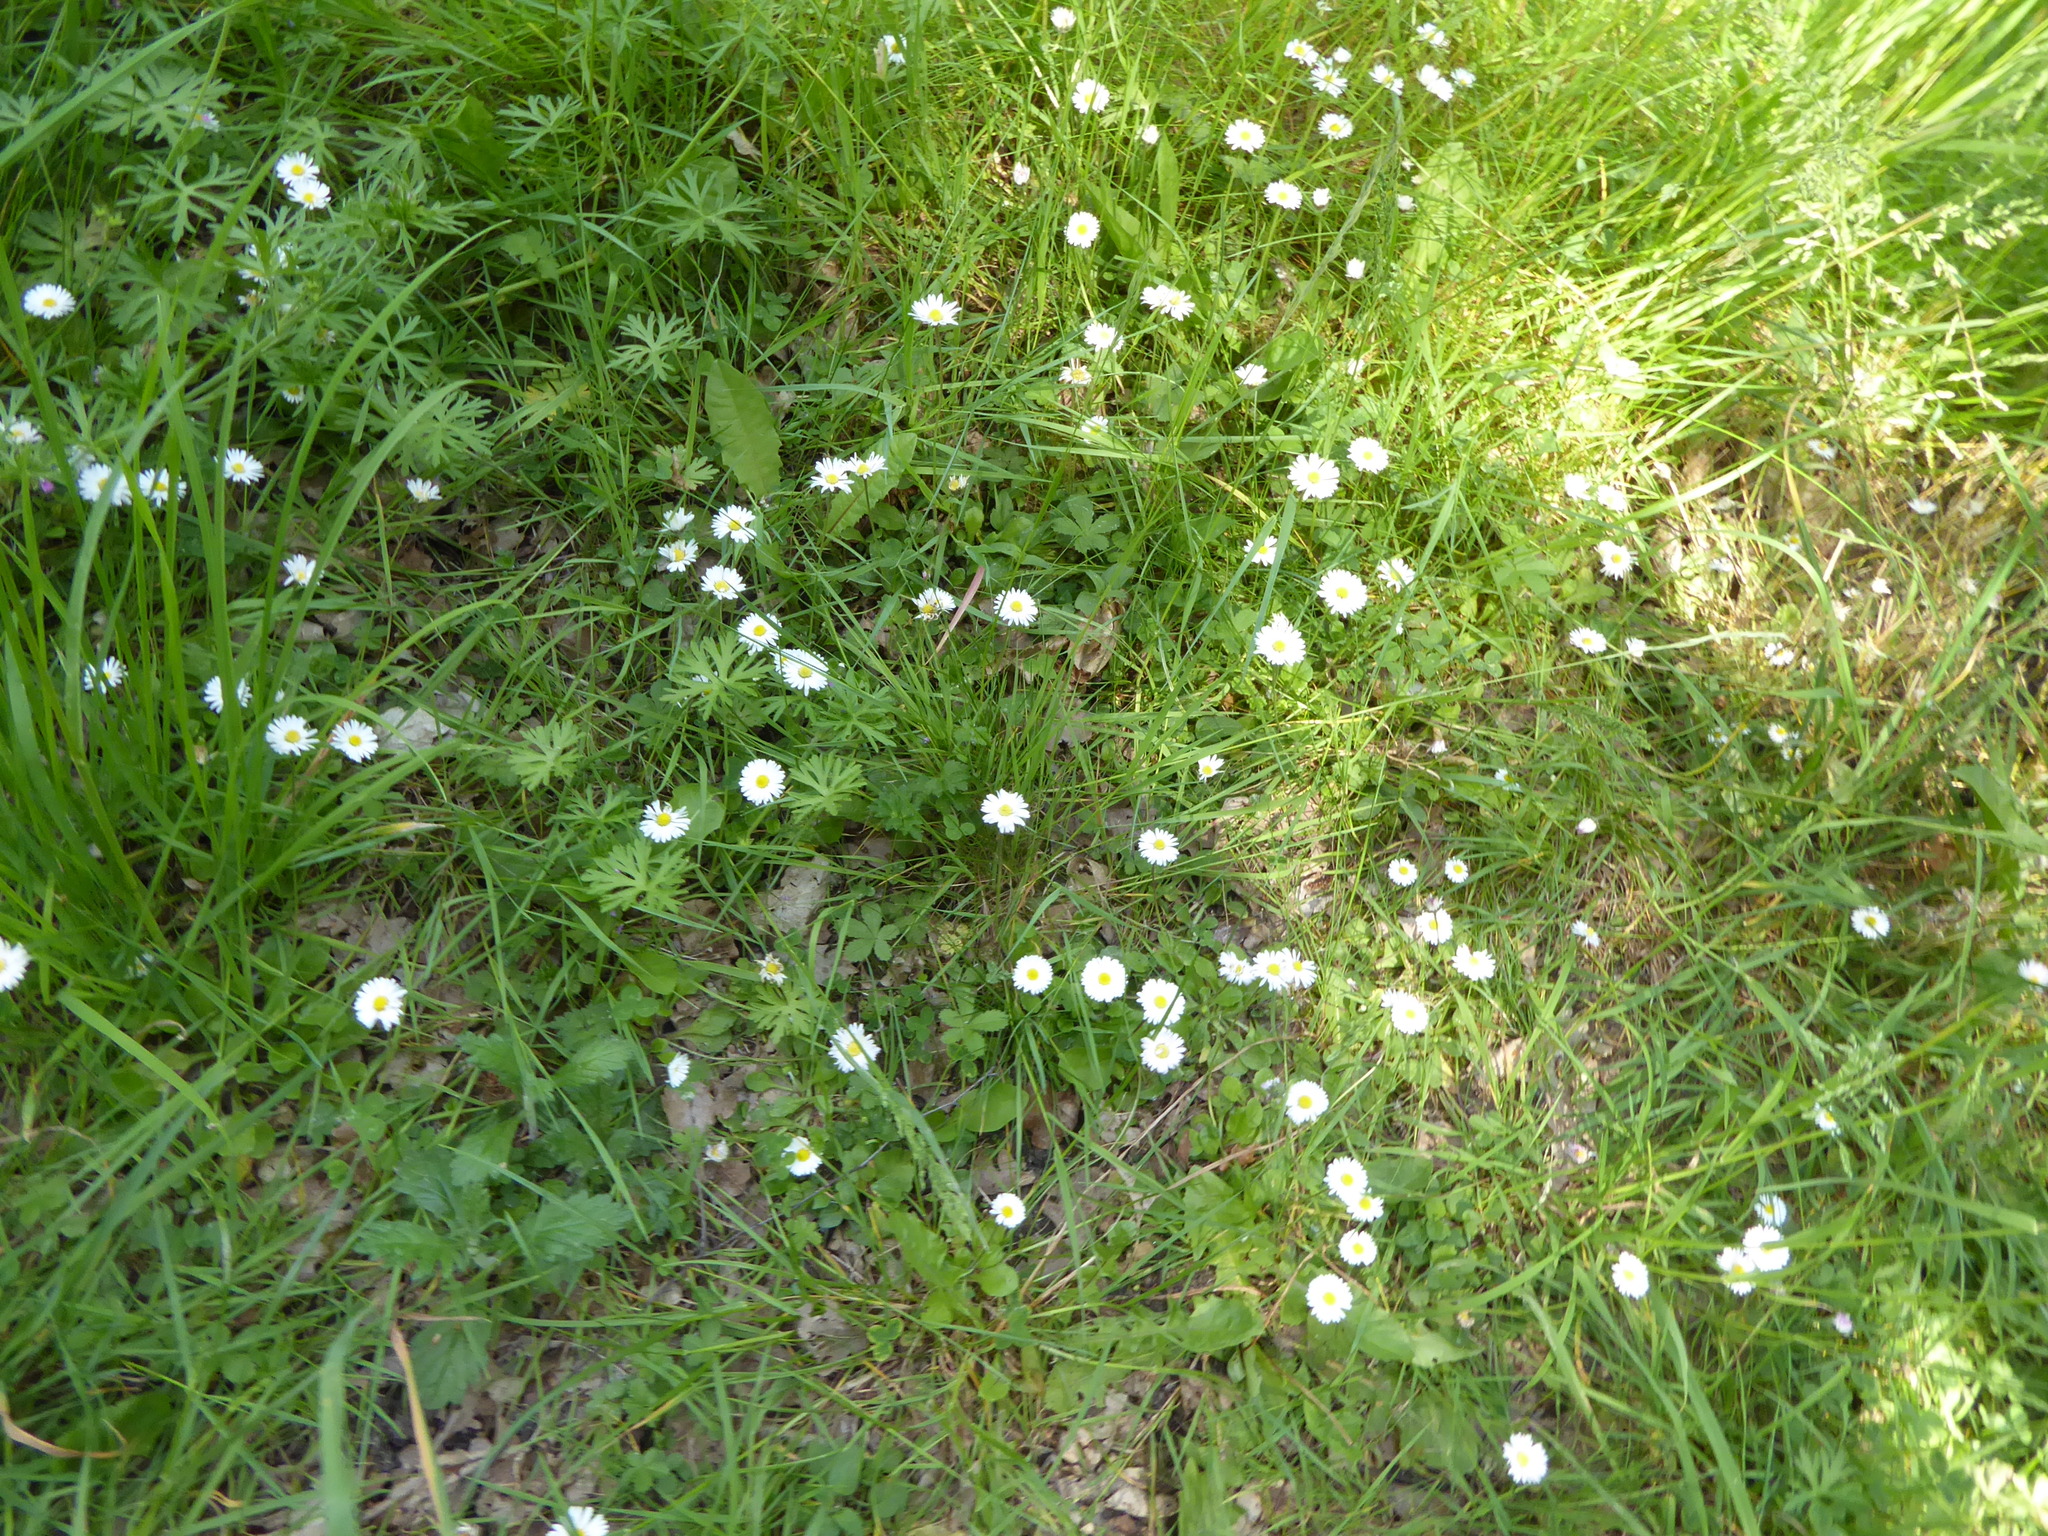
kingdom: Plantae
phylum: Tracheophyta
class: Magnoliopsida
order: Asterales
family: Asteraceae
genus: Bellis
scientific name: Bellis perennis
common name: Lawndaisy
